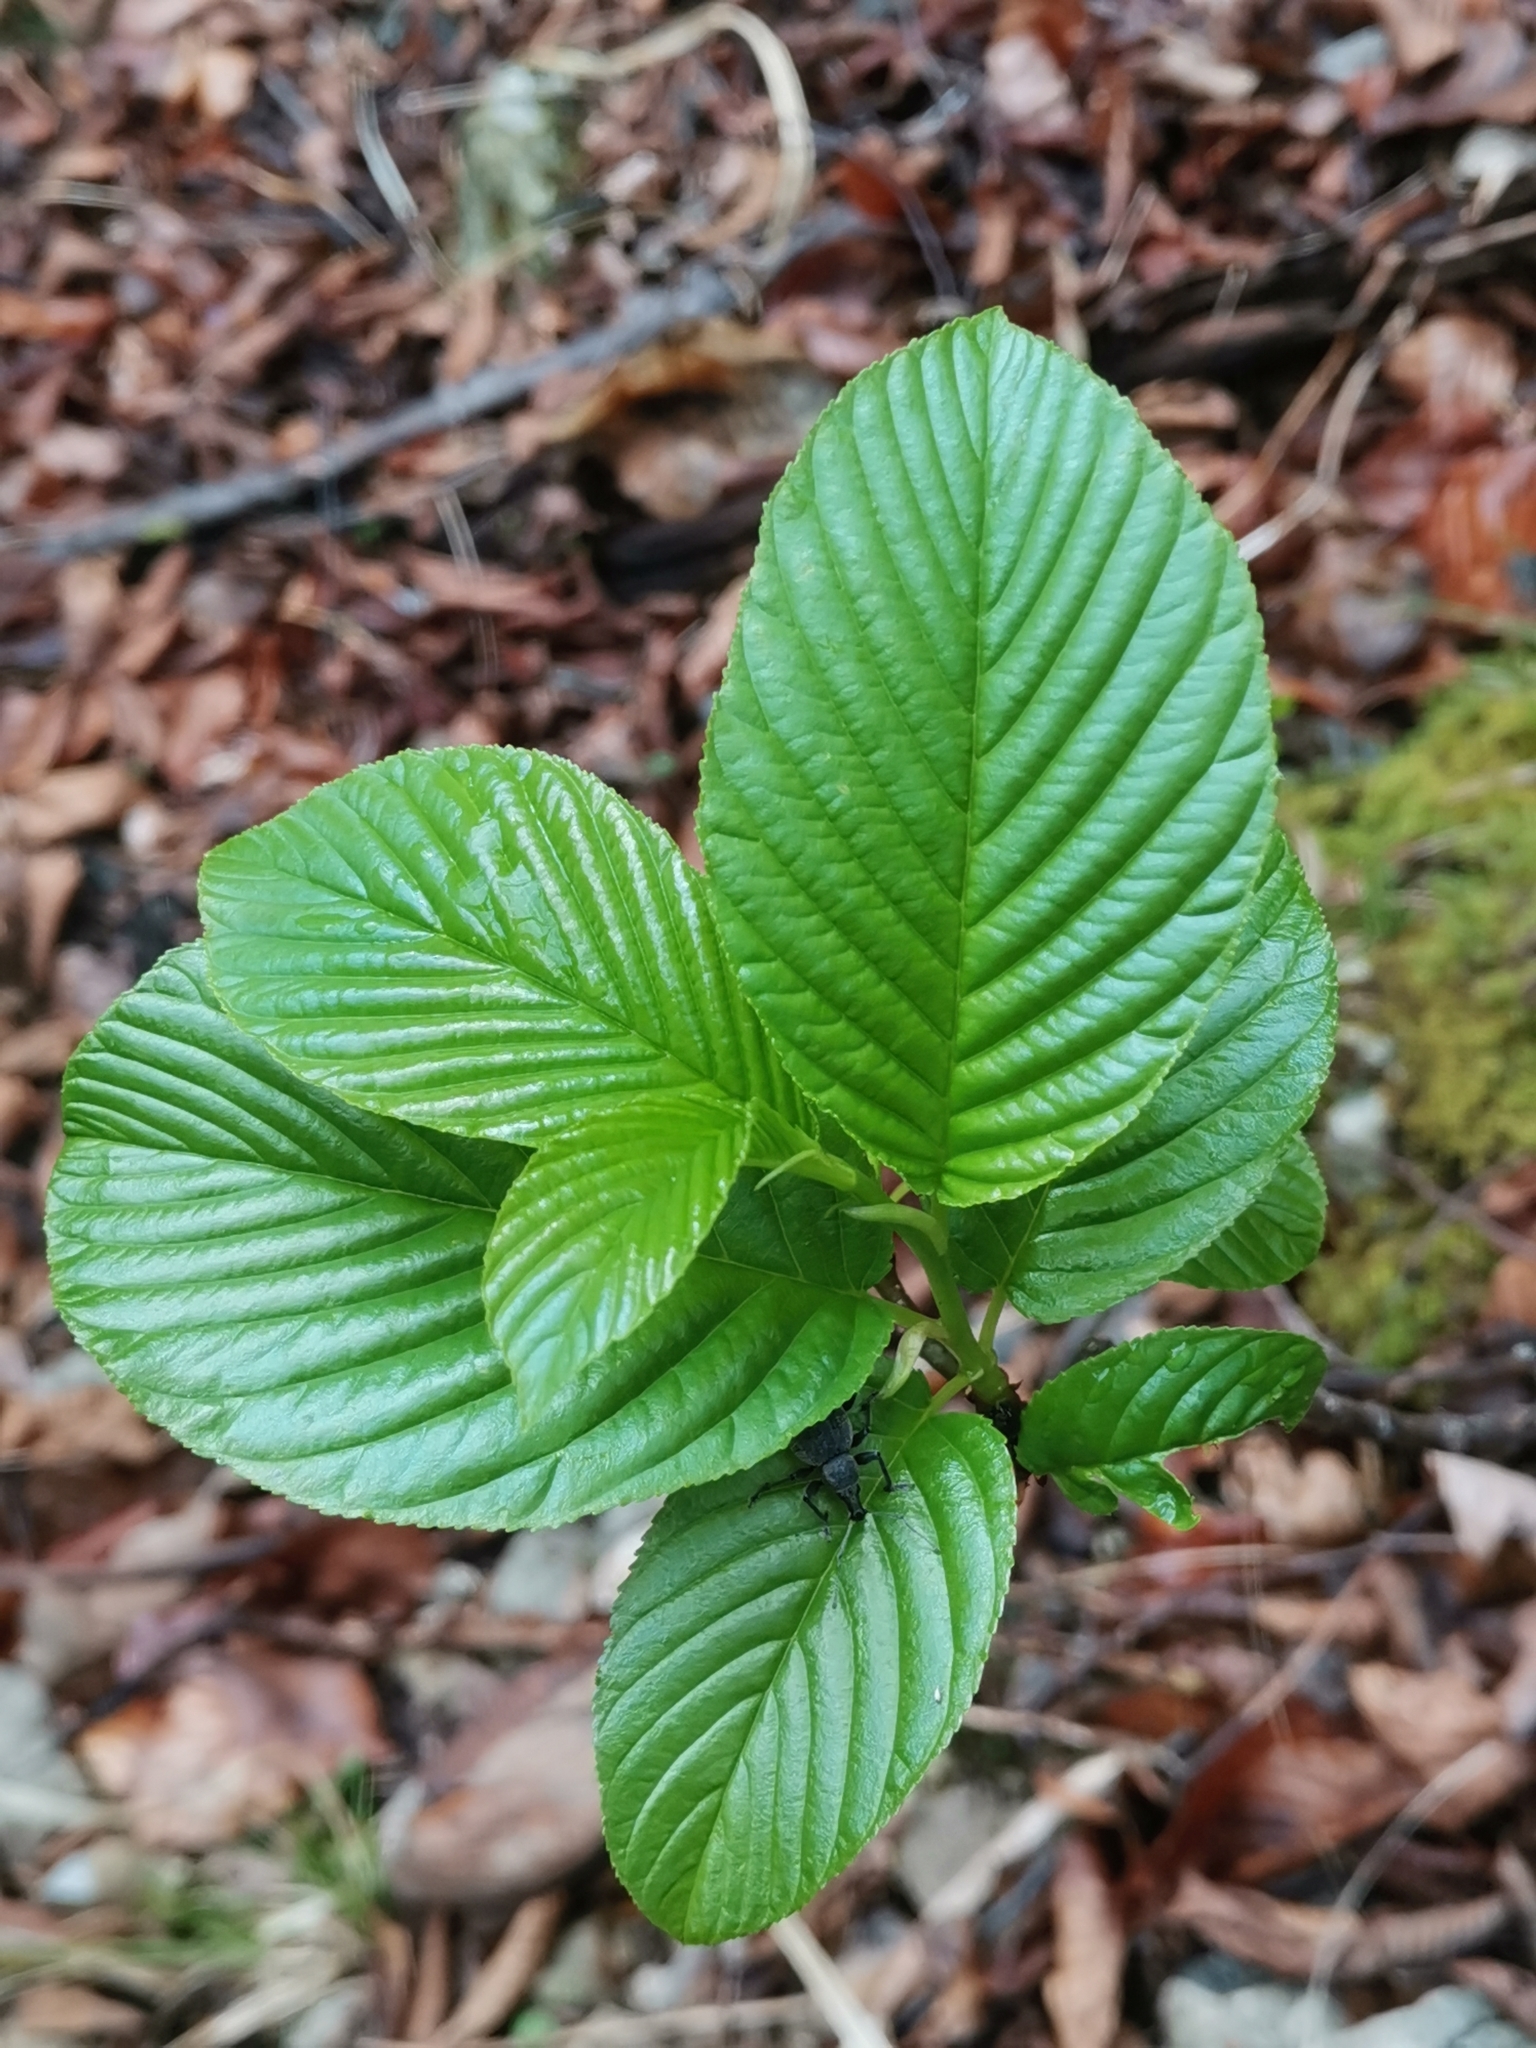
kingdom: Plantae
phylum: Tracheophyta
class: Magnoliopsida
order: Rosales
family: Rhamnaceae
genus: Atadinus
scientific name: Atadinus fallax
